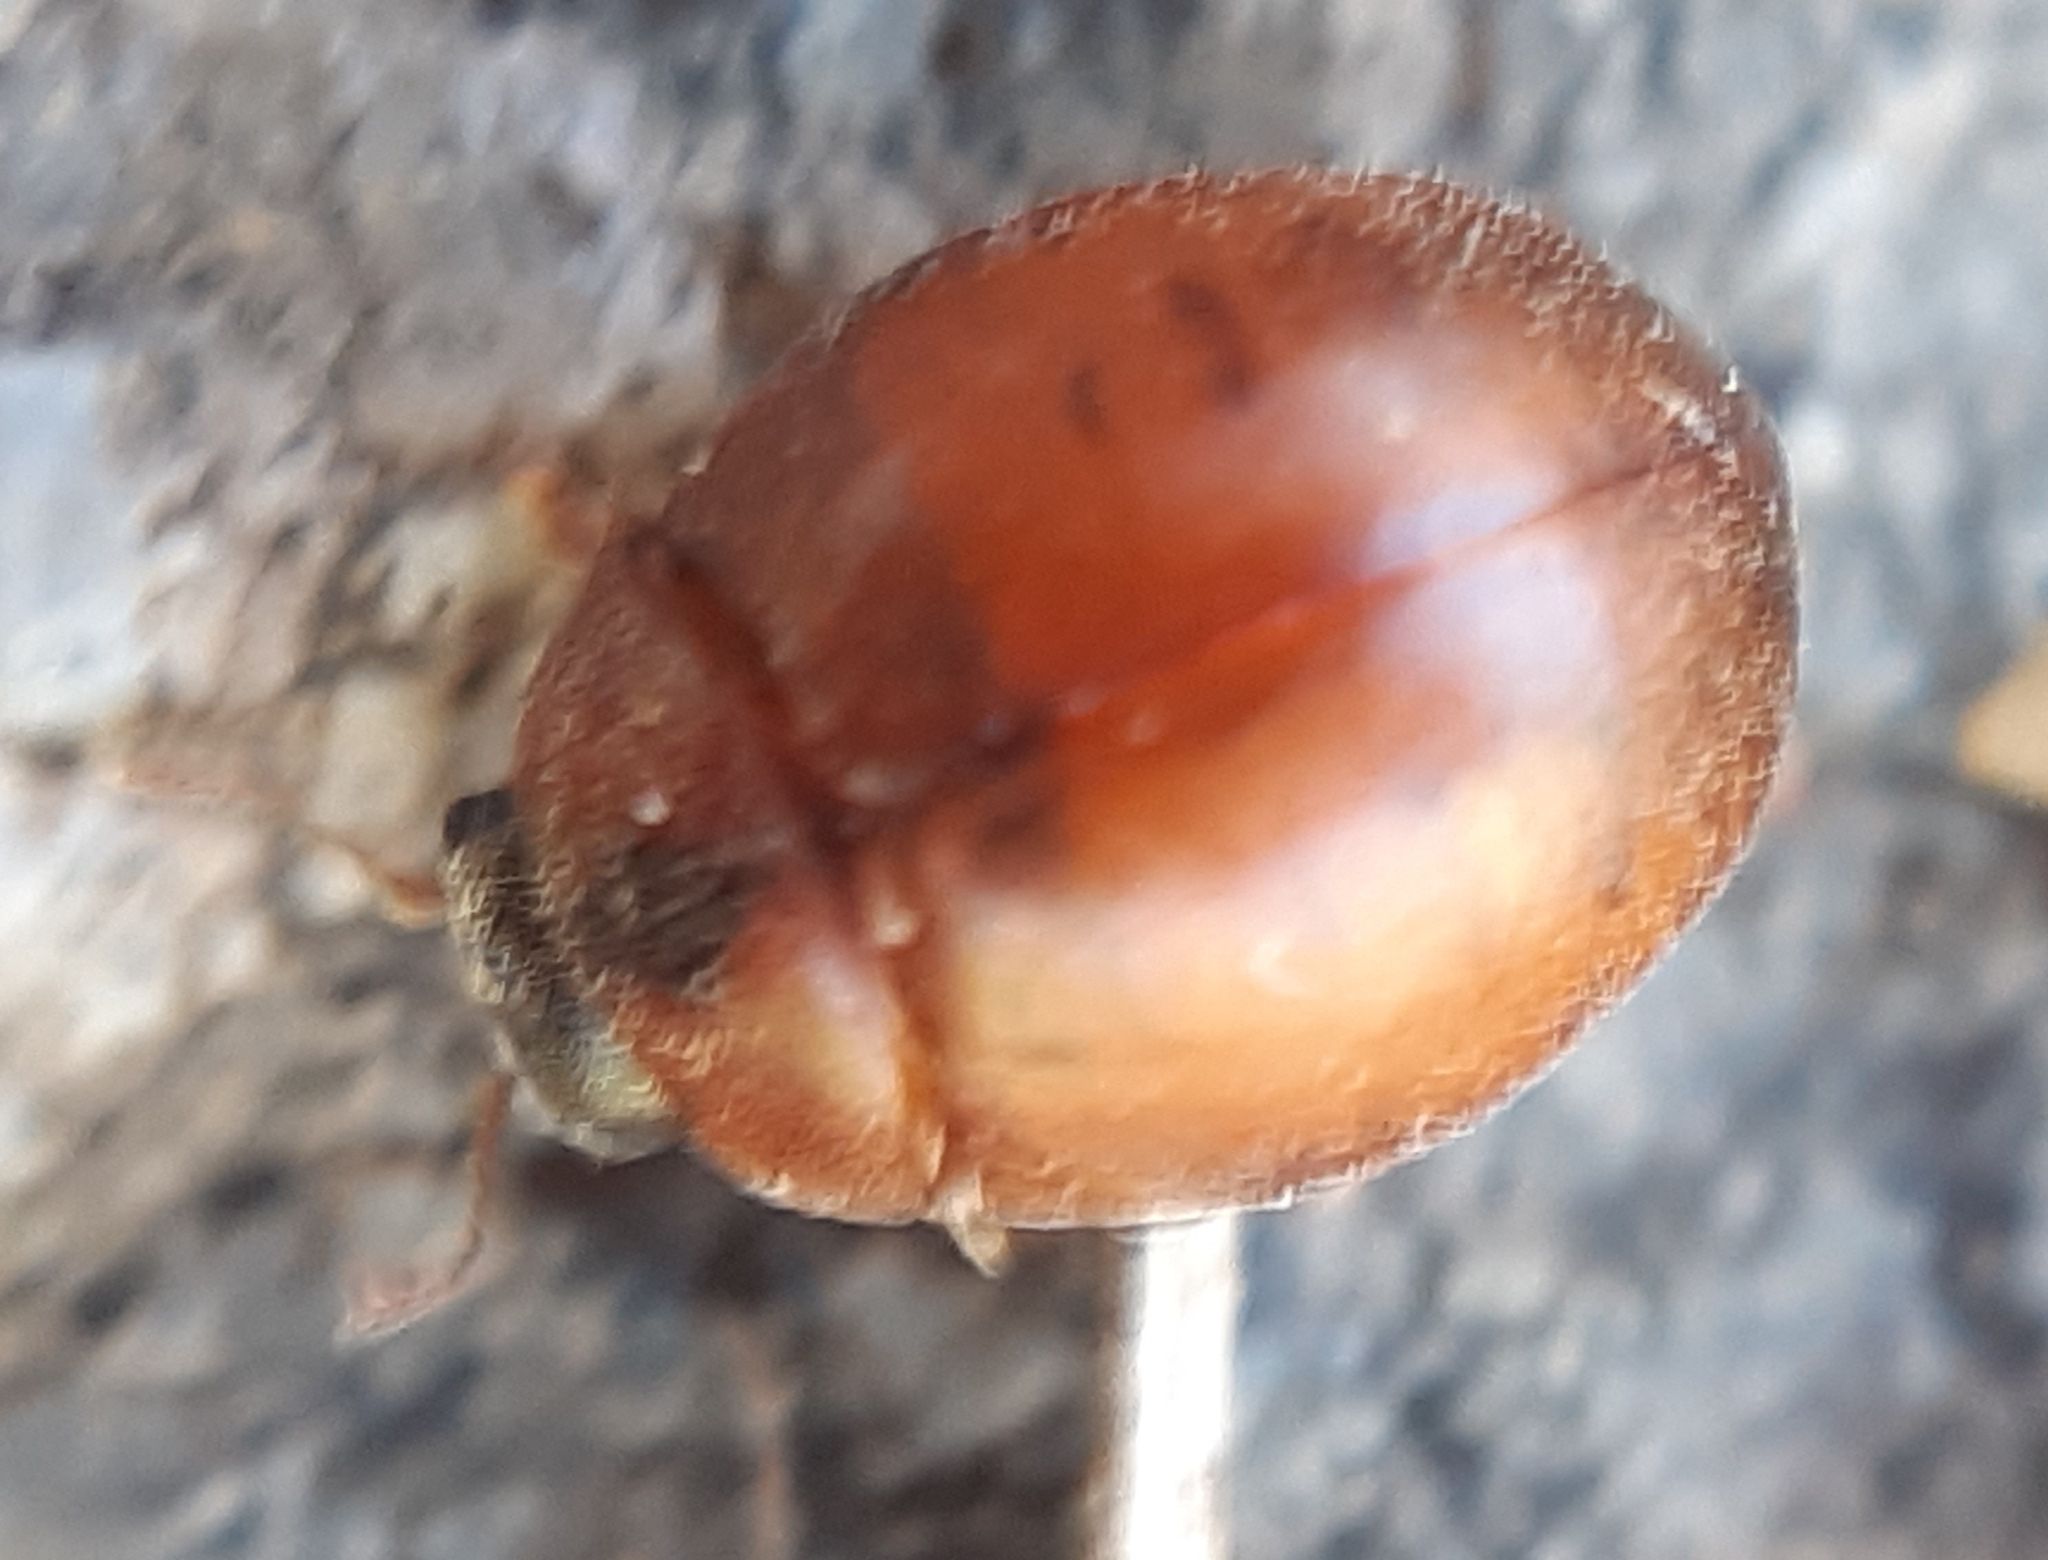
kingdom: Animalia
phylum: Arthropoda
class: Insecta
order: Coleoptera
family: Coccinellidae
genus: Cynegetis
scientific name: Cynegetis impunctata
